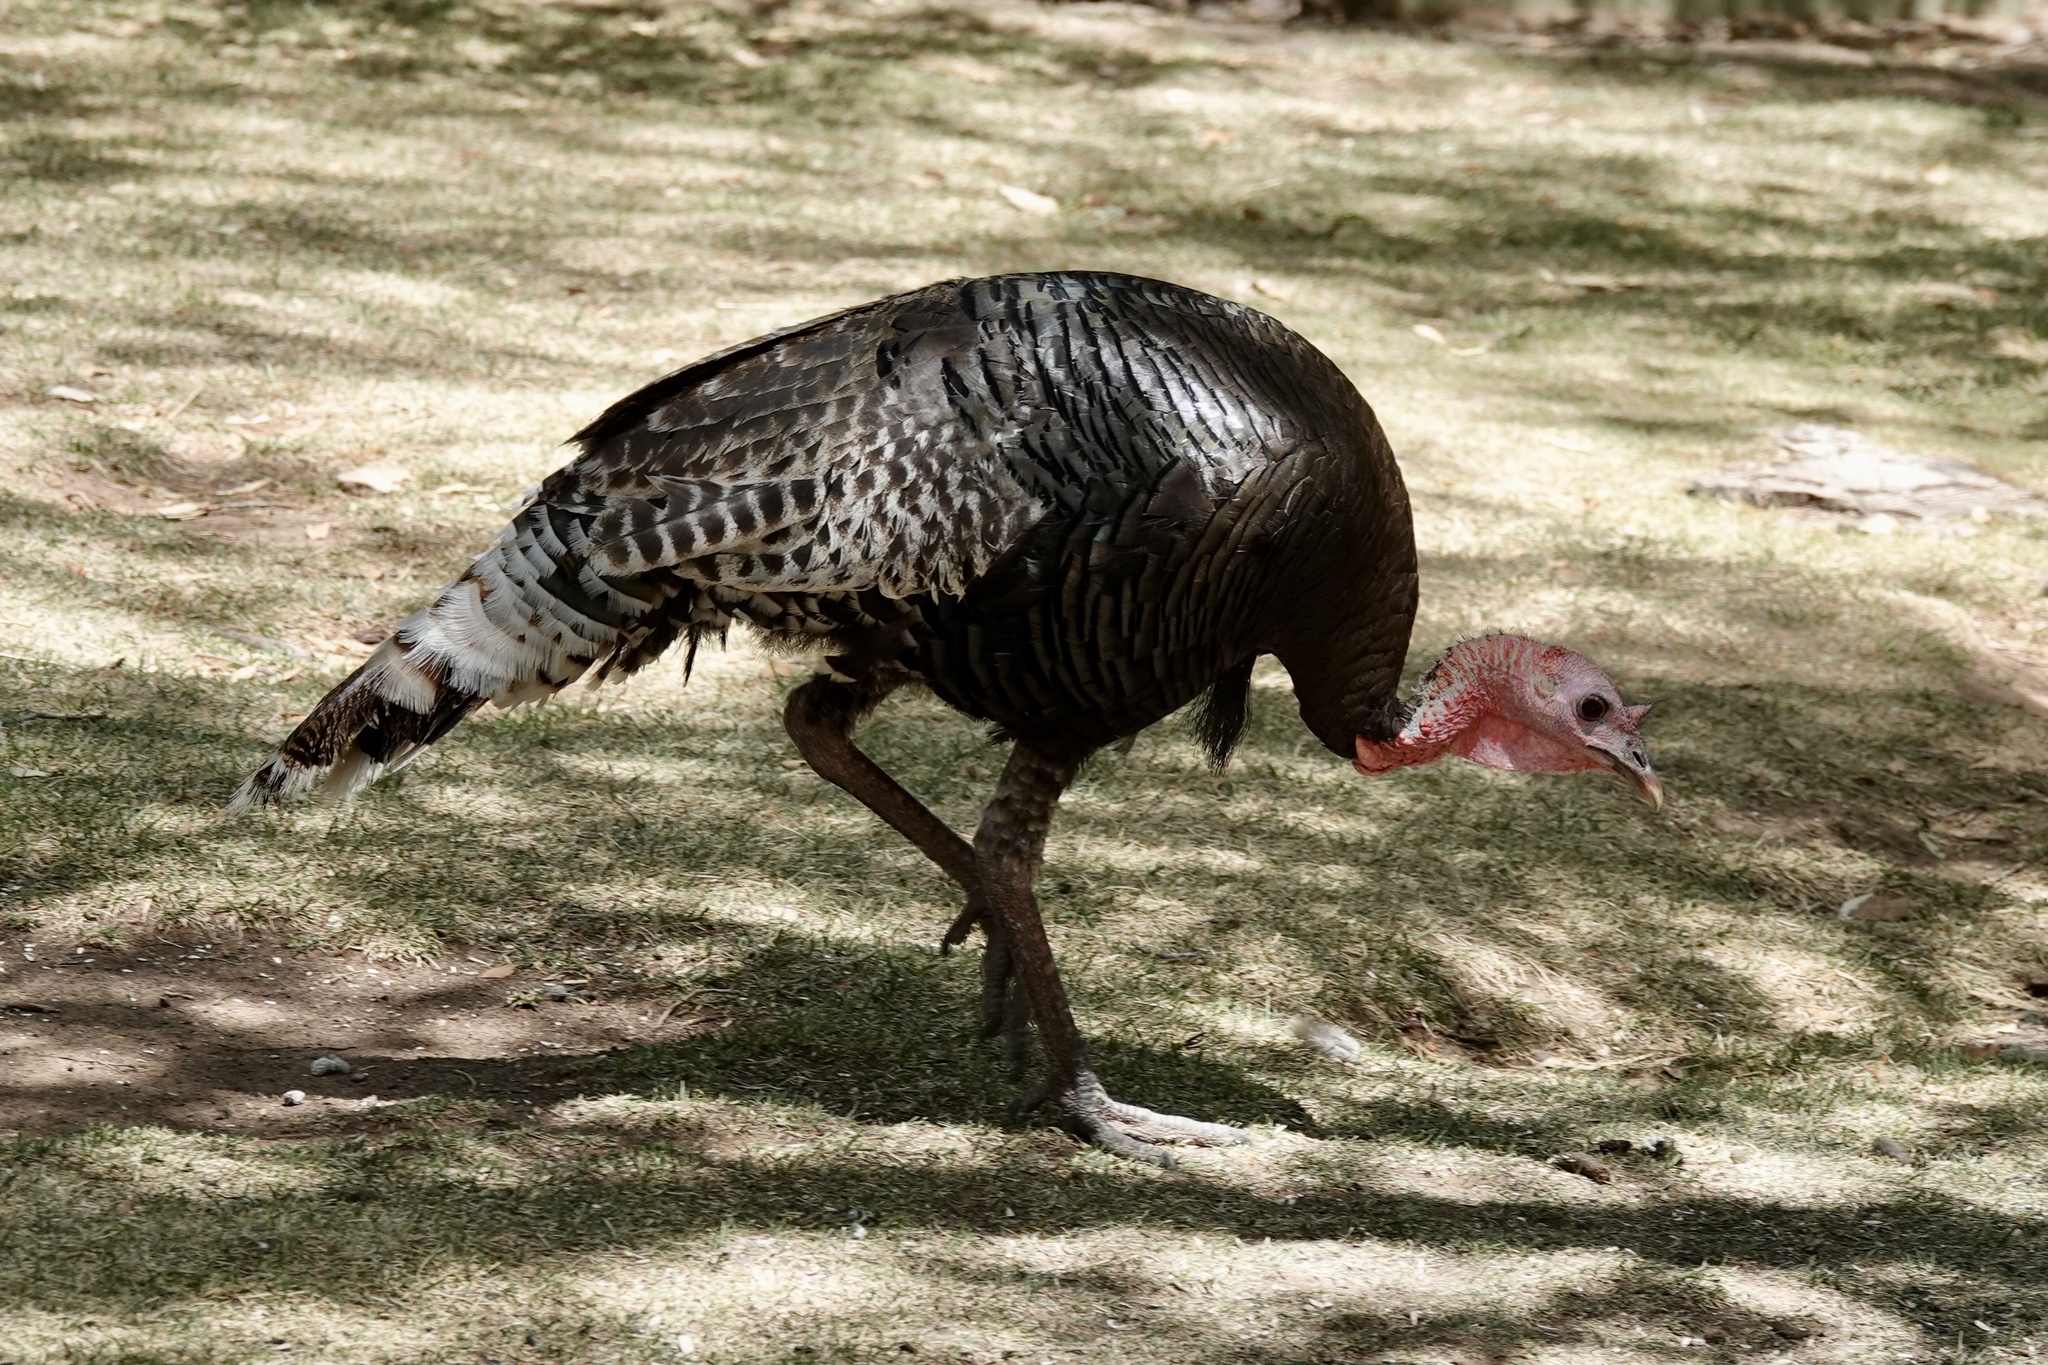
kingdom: Animalia
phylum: Chordata
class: Aves
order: Galliformes
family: Phasianidae
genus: Meleagris
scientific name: Meleagris gallopavo
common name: Wild turkey
